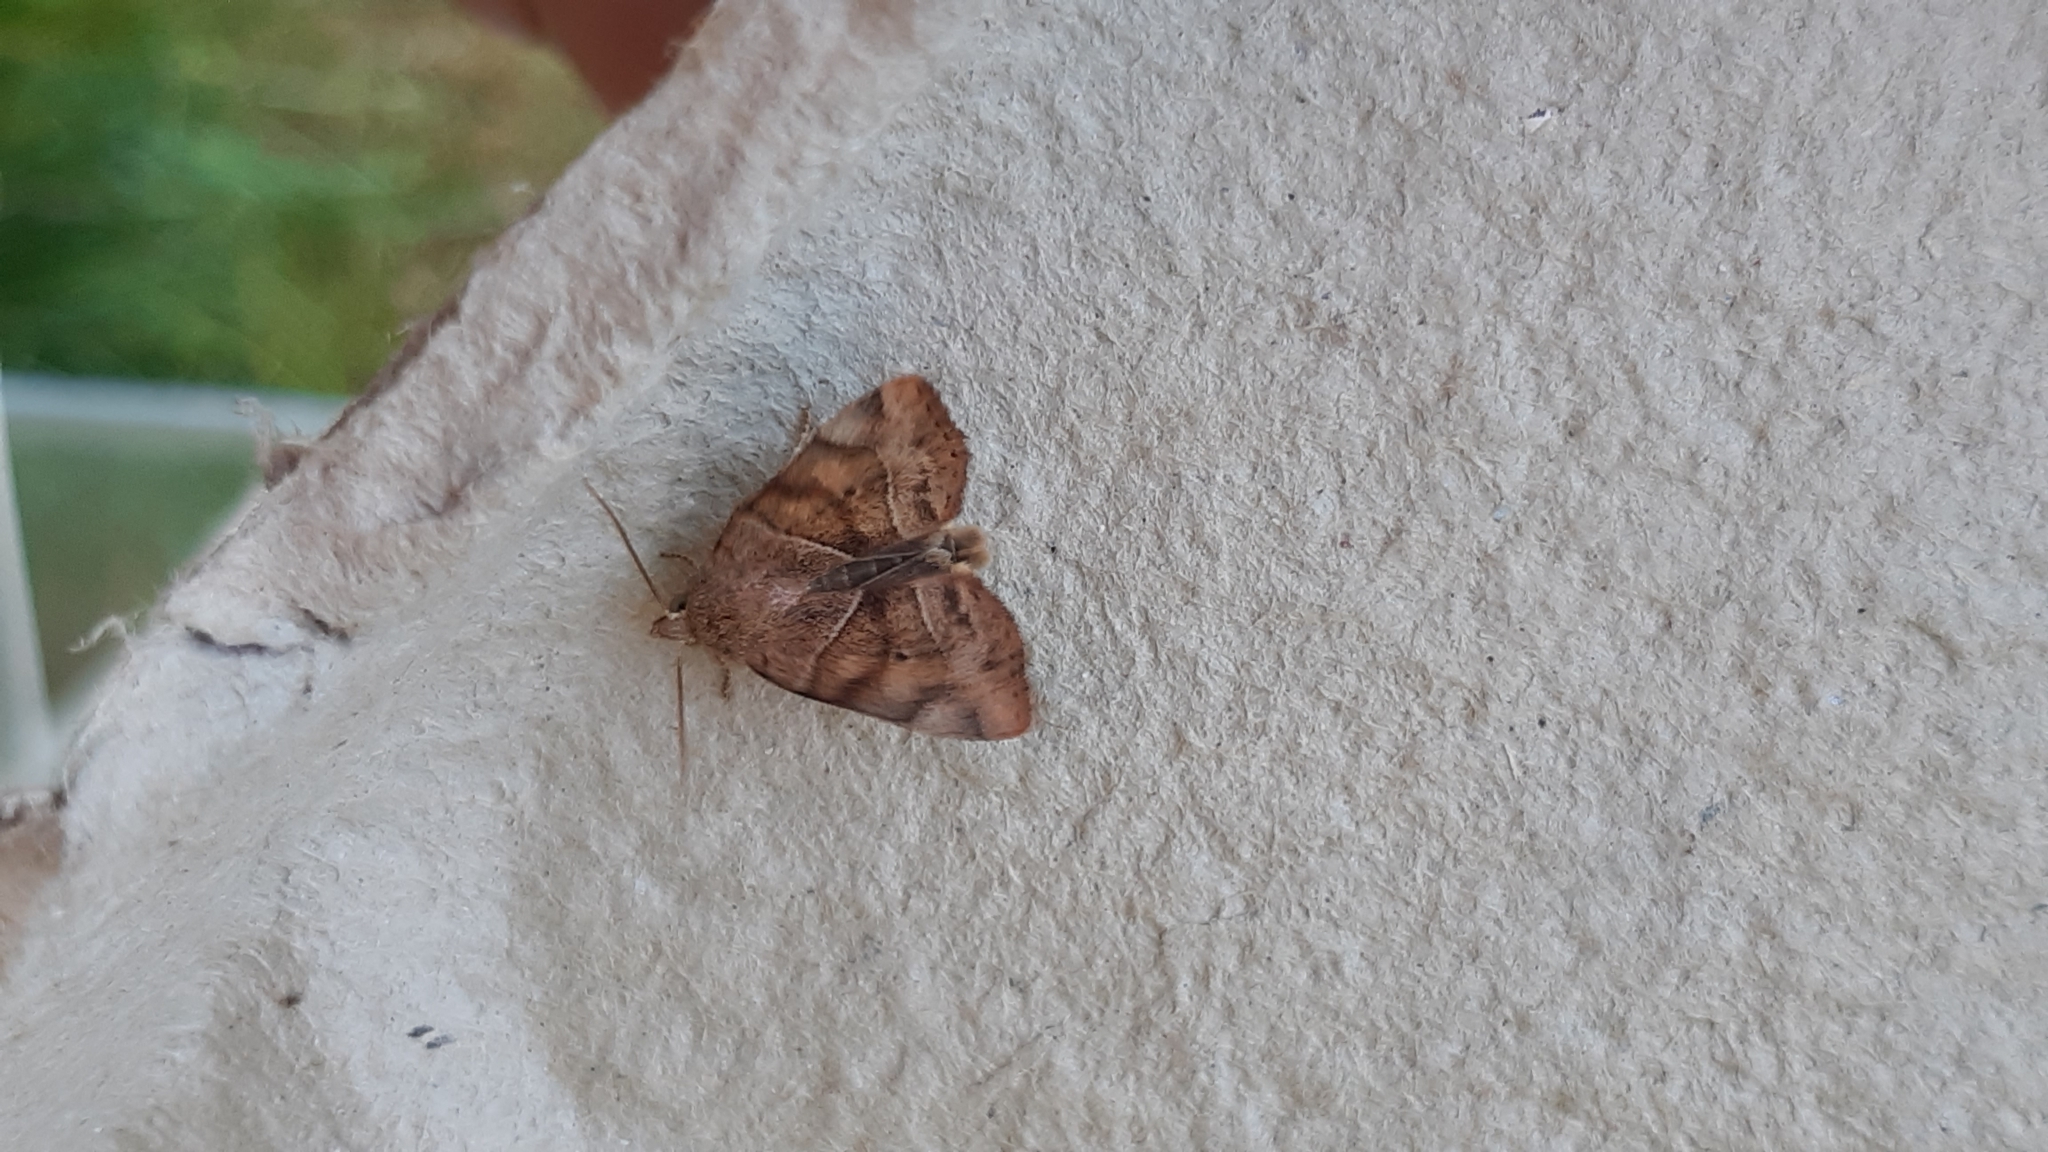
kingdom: Animalia
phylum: Arthropoda
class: Insecta
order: Lepidoptera
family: Noctuidae
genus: Cosmia
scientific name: Cosmia trapezina
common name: Dun-bar
